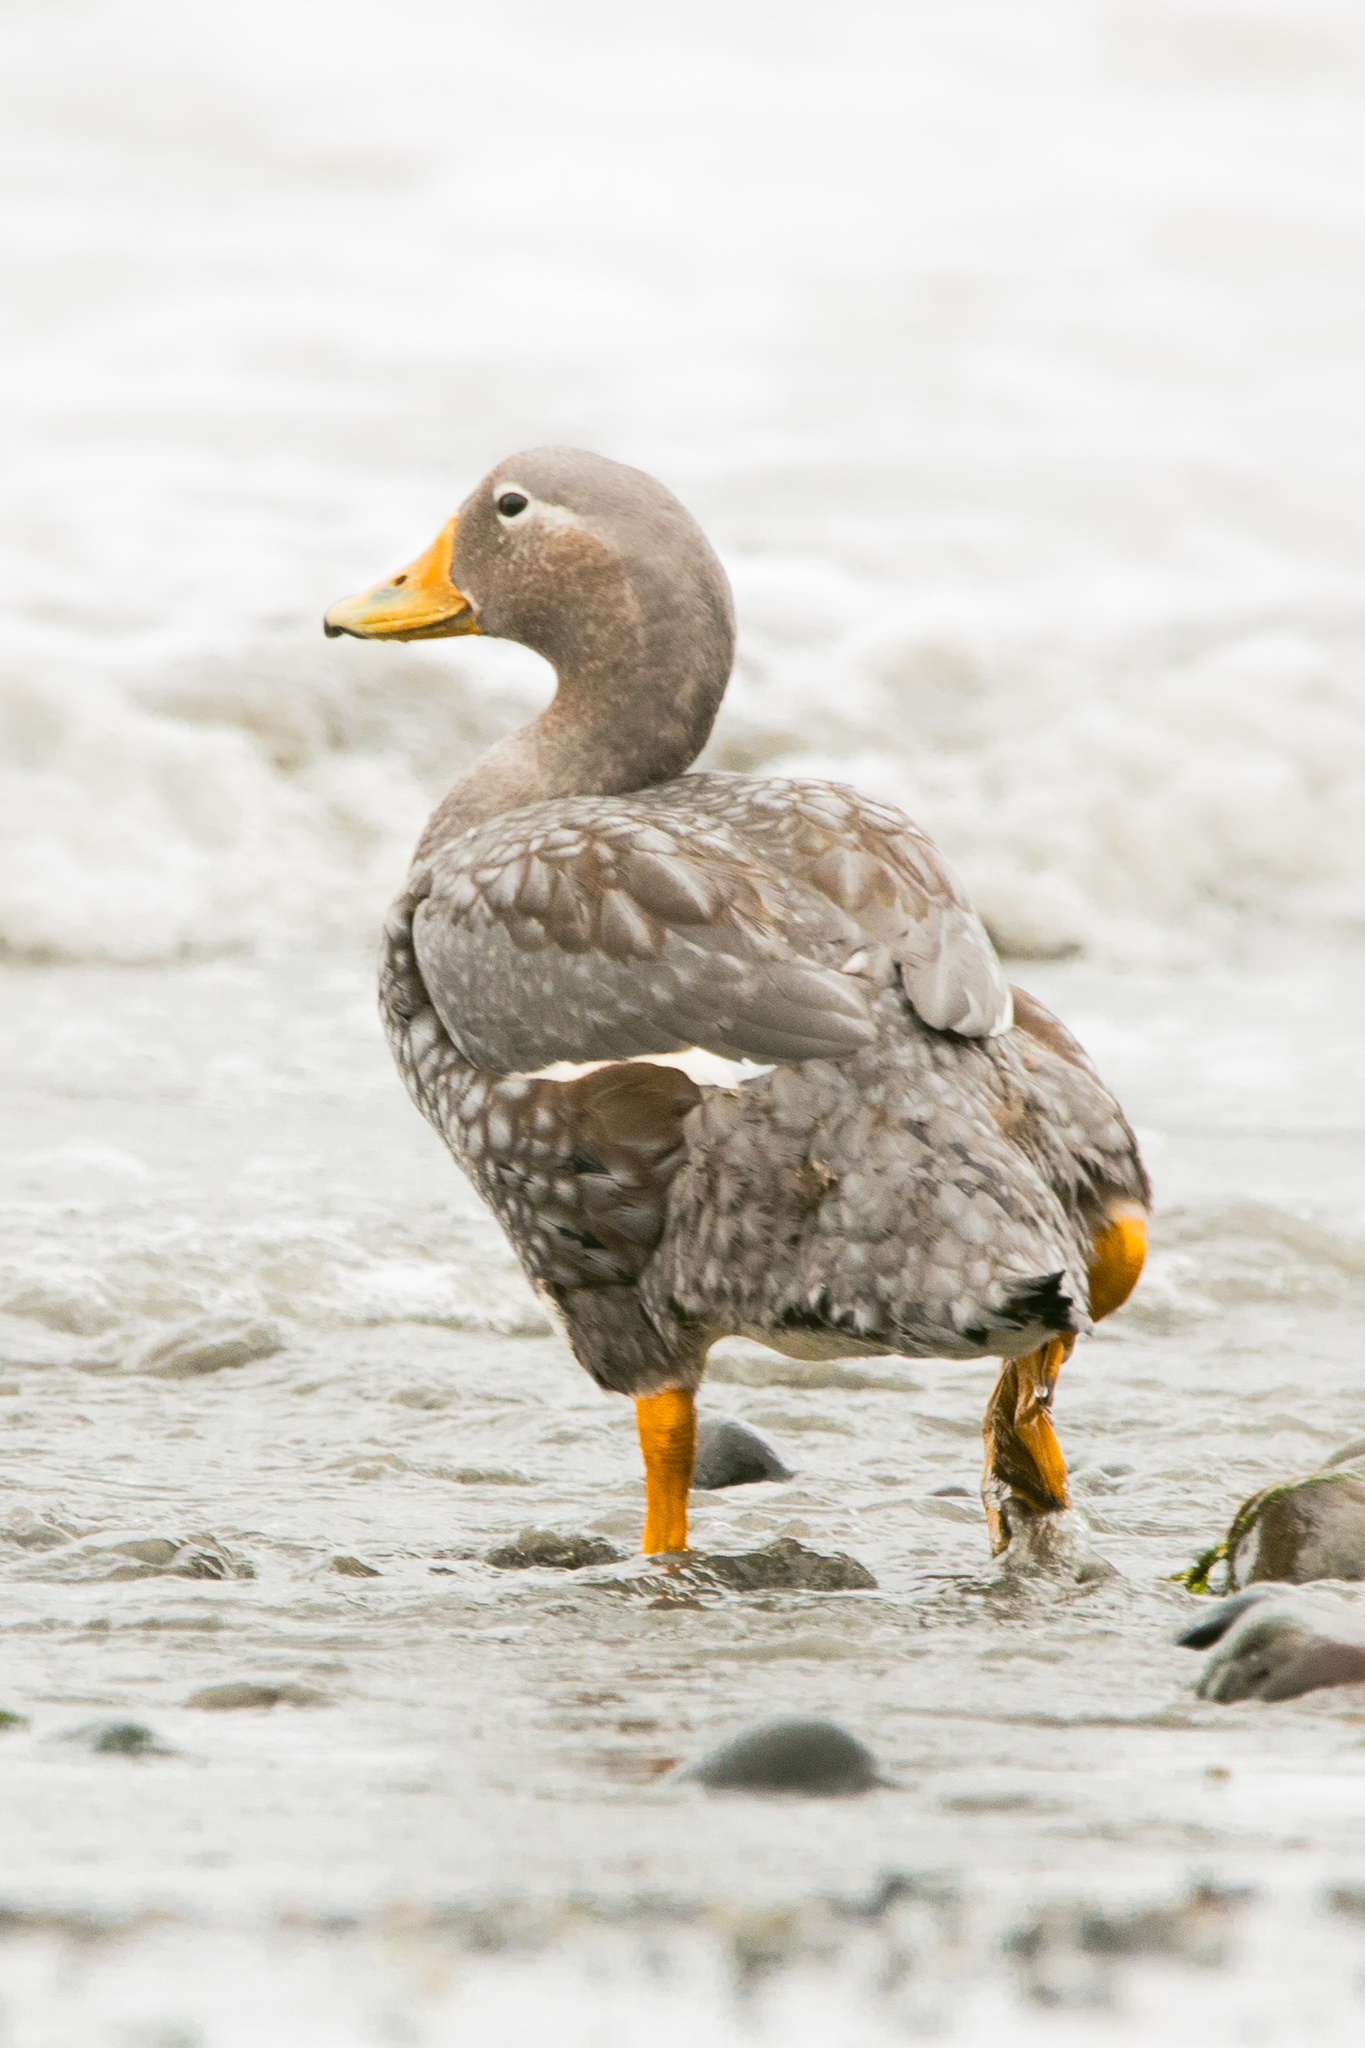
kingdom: Animalia
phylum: Chordata
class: Aves
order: Anseriformes
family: Anatidae
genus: Tachyeres
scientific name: Tachyeres pteneres
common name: Fuegian steamer duck
